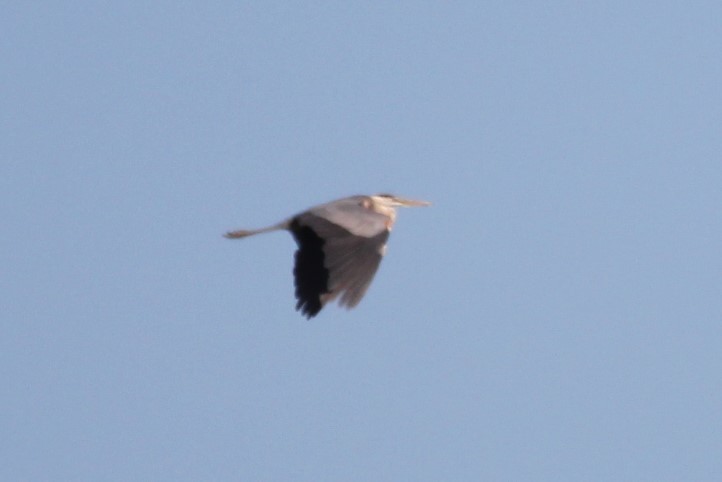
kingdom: Animalia
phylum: Chordata
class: Aves
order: Pelecaniformes
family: Ardeidae
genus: Ardea
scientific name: Ardea herodias
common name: Great blue heron
